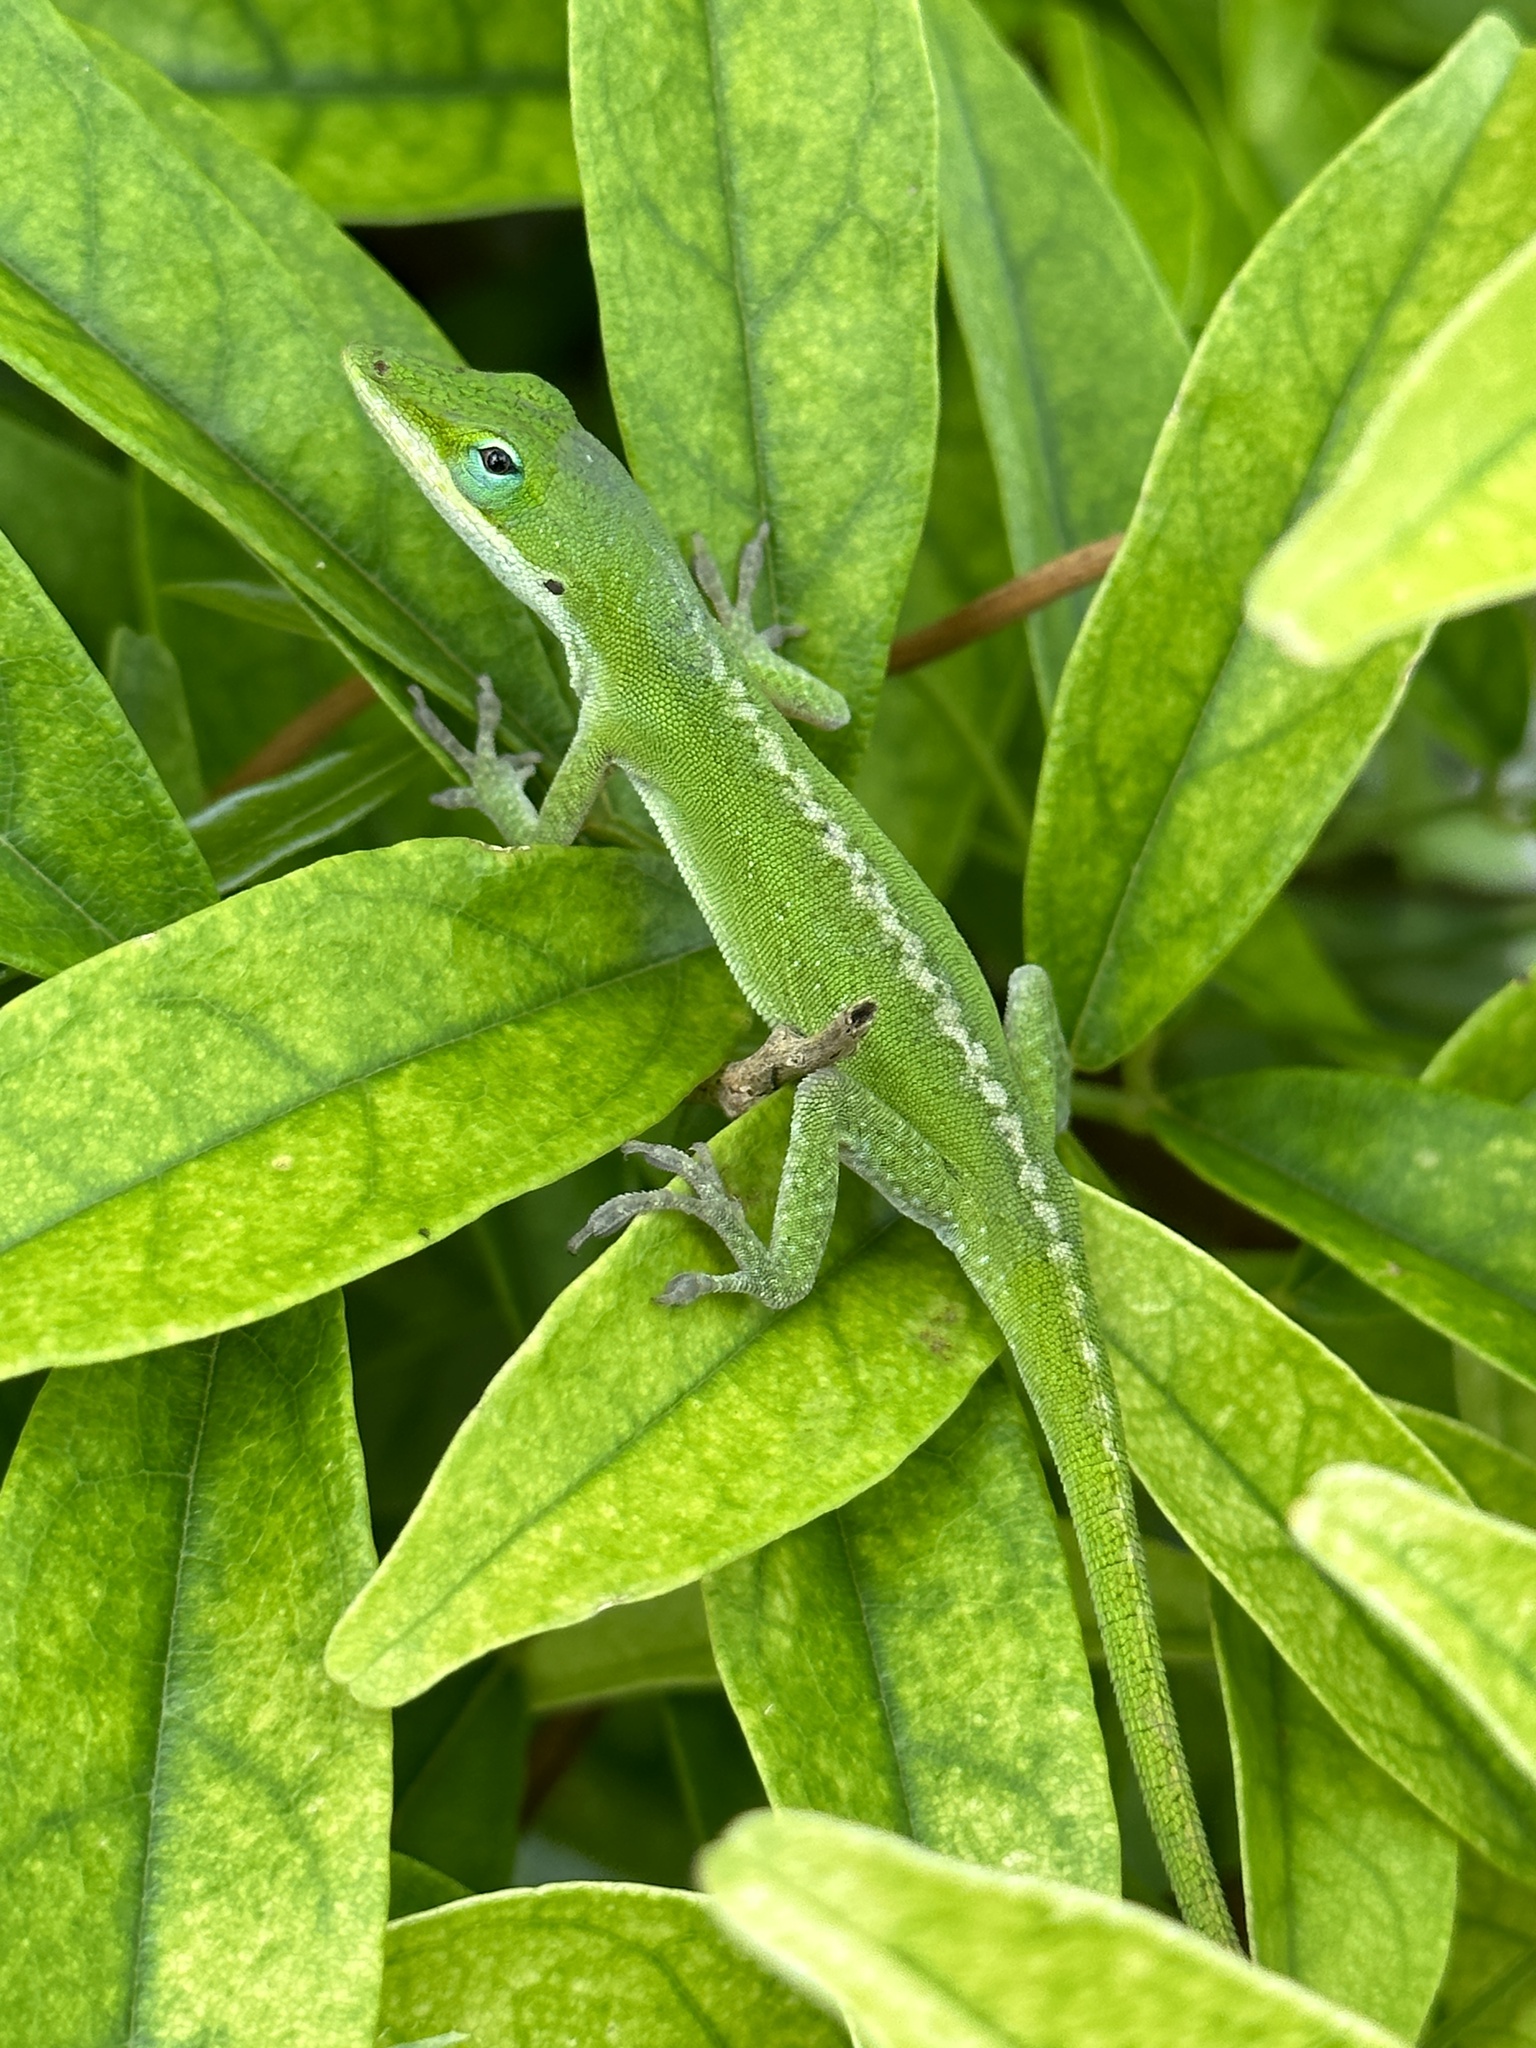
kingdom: Animalia
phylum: Chordata
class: Squamata
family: Dactyloidae
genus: Anolis
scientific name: Anolis carolinensis
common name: Green anole
